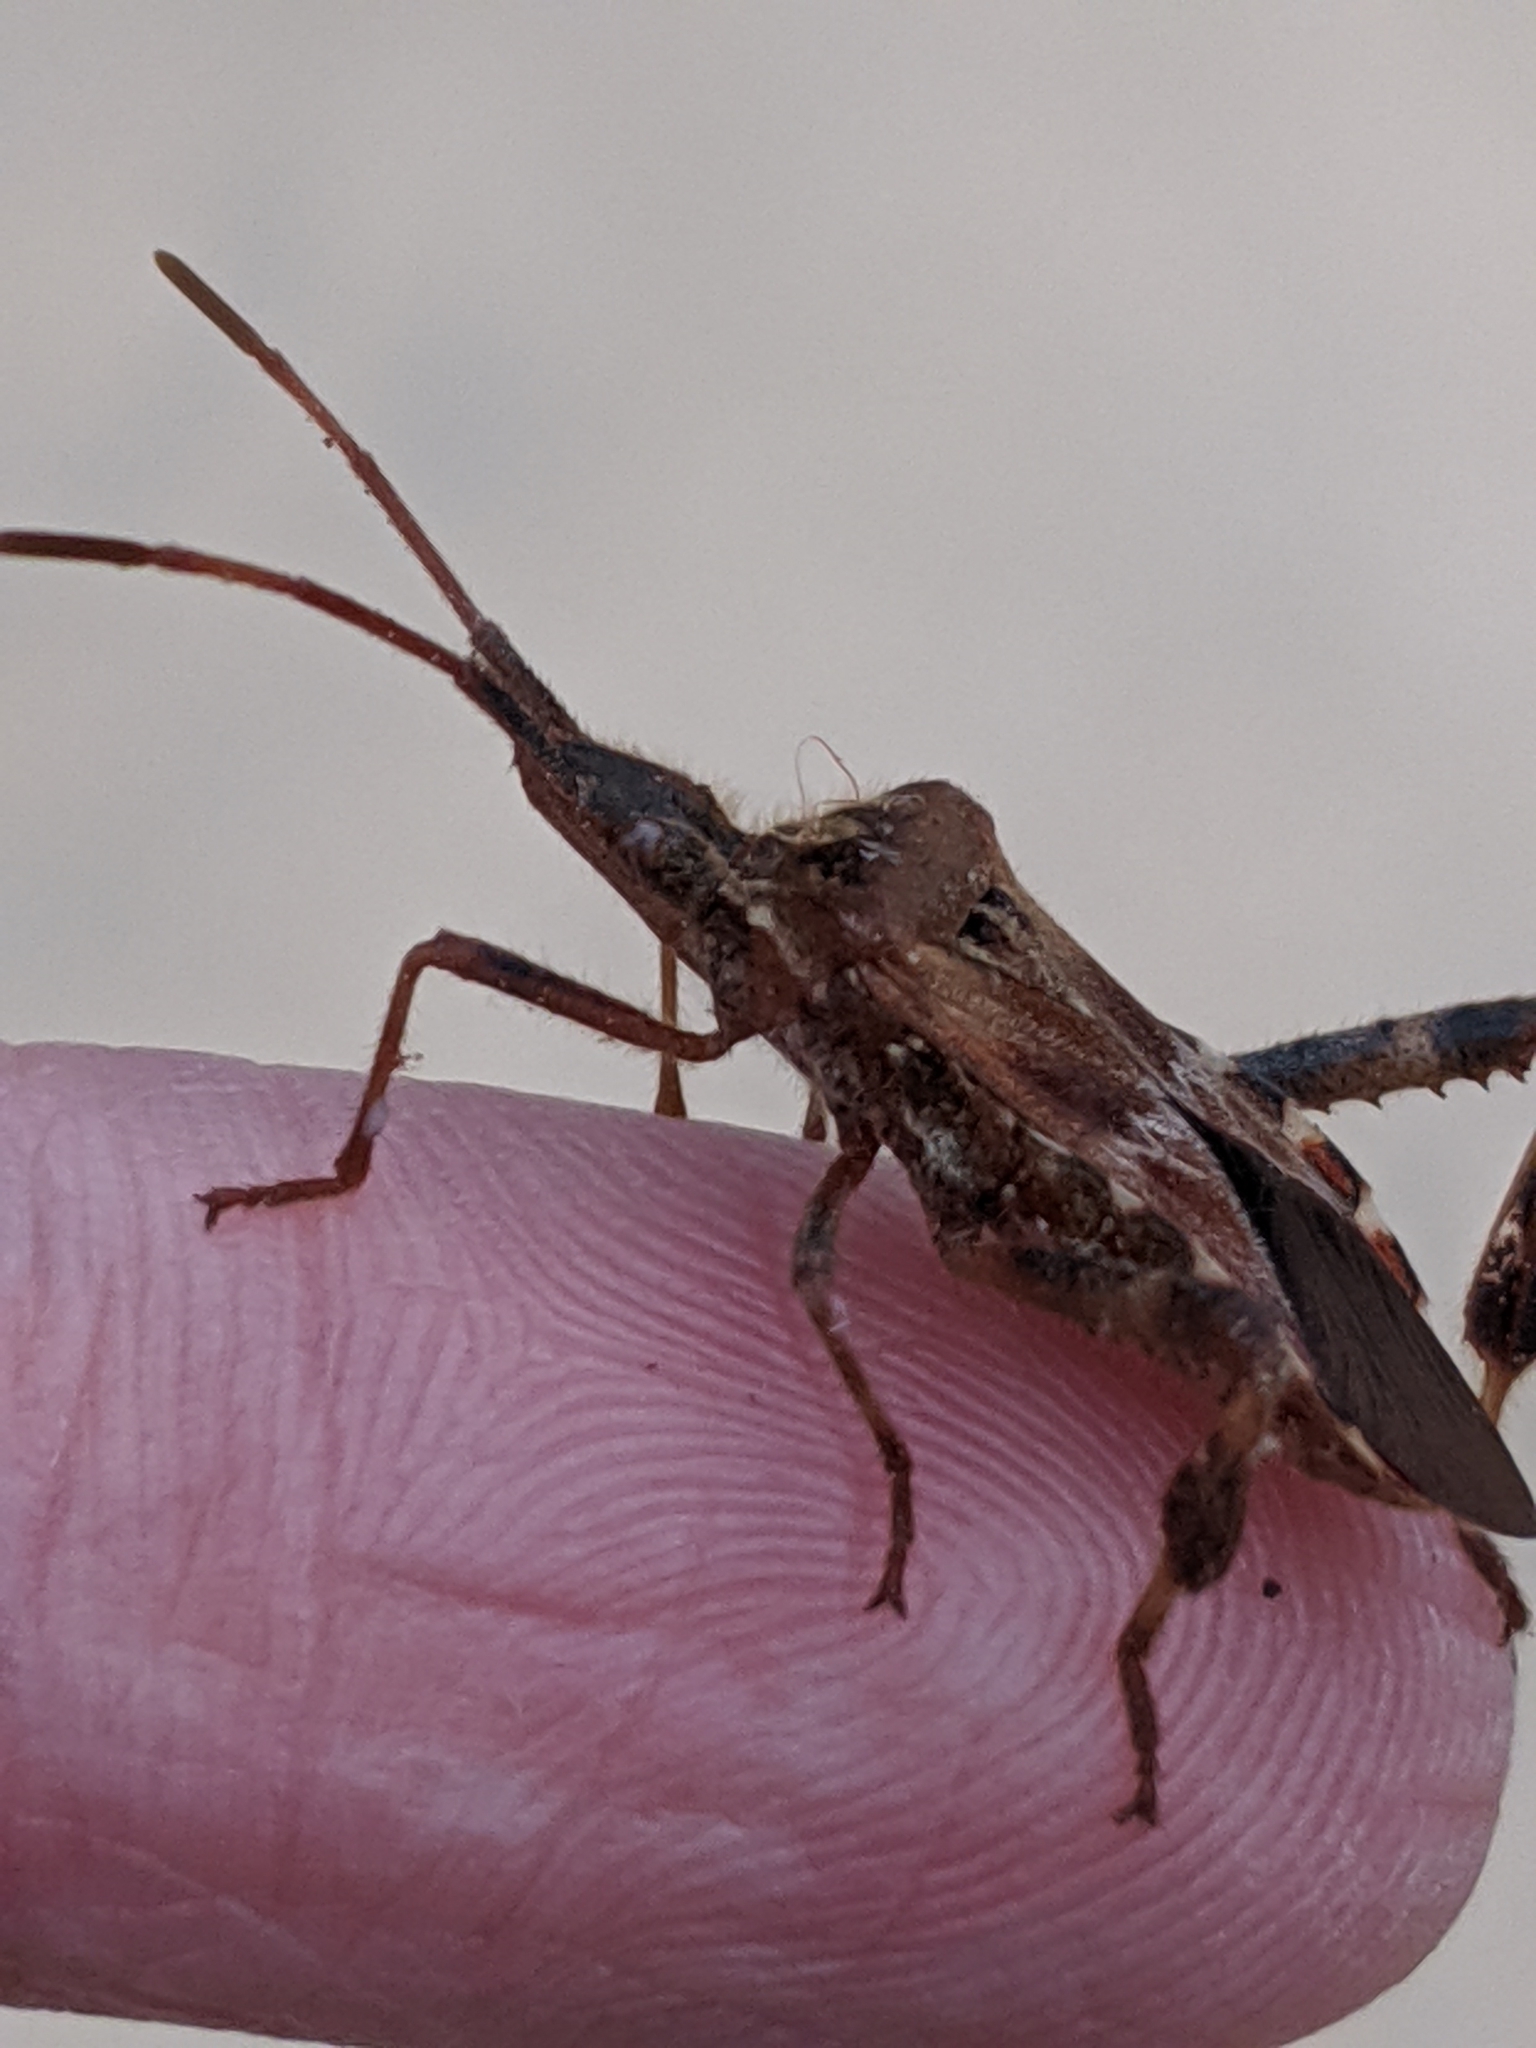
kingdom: Animalia
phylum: Arthropoda
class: Insecta
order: Hemiptera
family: Coreidae
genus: Leptoglossus
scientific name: Leptoglossus occidentalis
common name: Western conifer-seed bug
